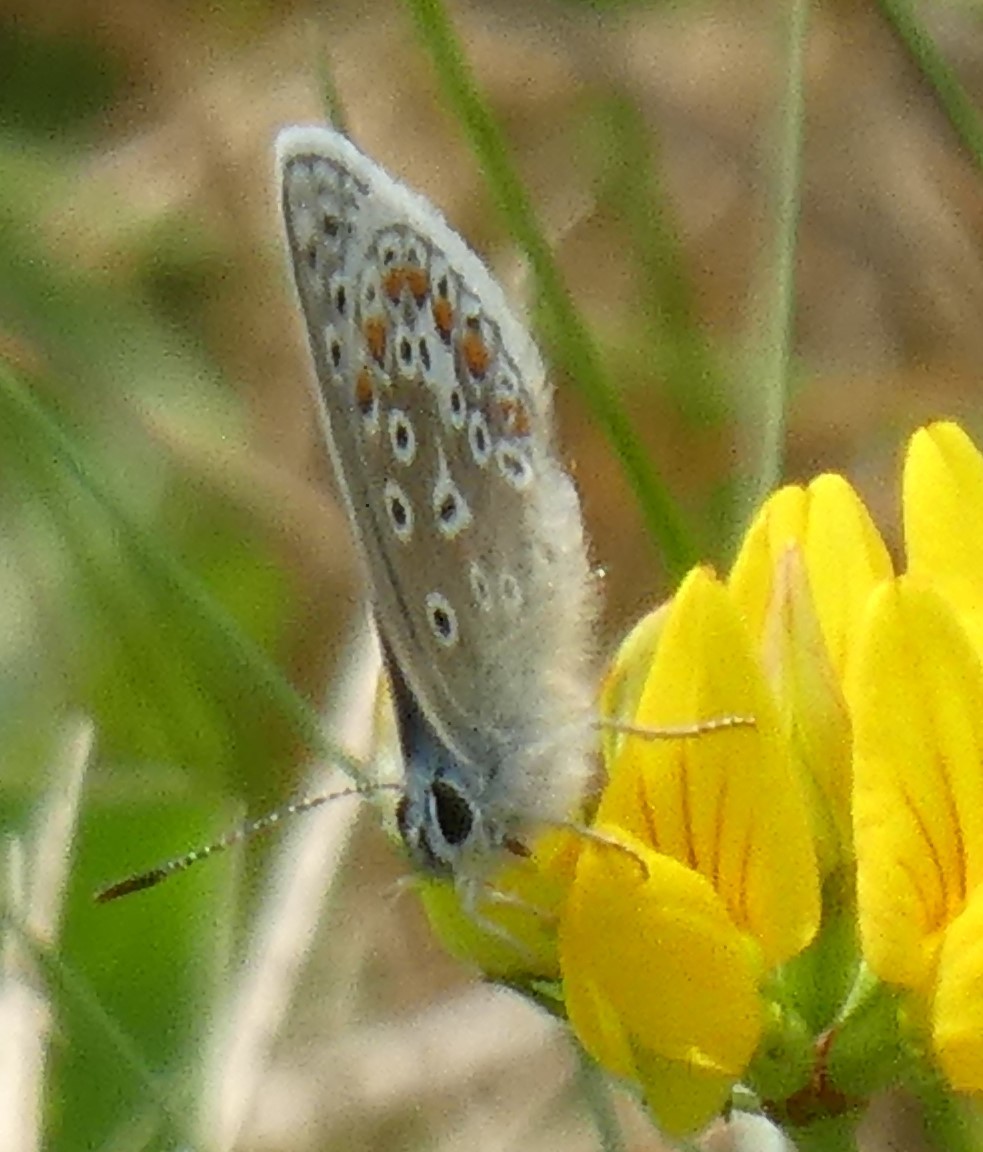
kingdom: Animalia
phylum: Arthropoda
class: Insecta
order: Lepidoptera
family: Lycaenidae
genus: Polyommatus
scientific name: Polyommatus icarus
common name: Common blue
